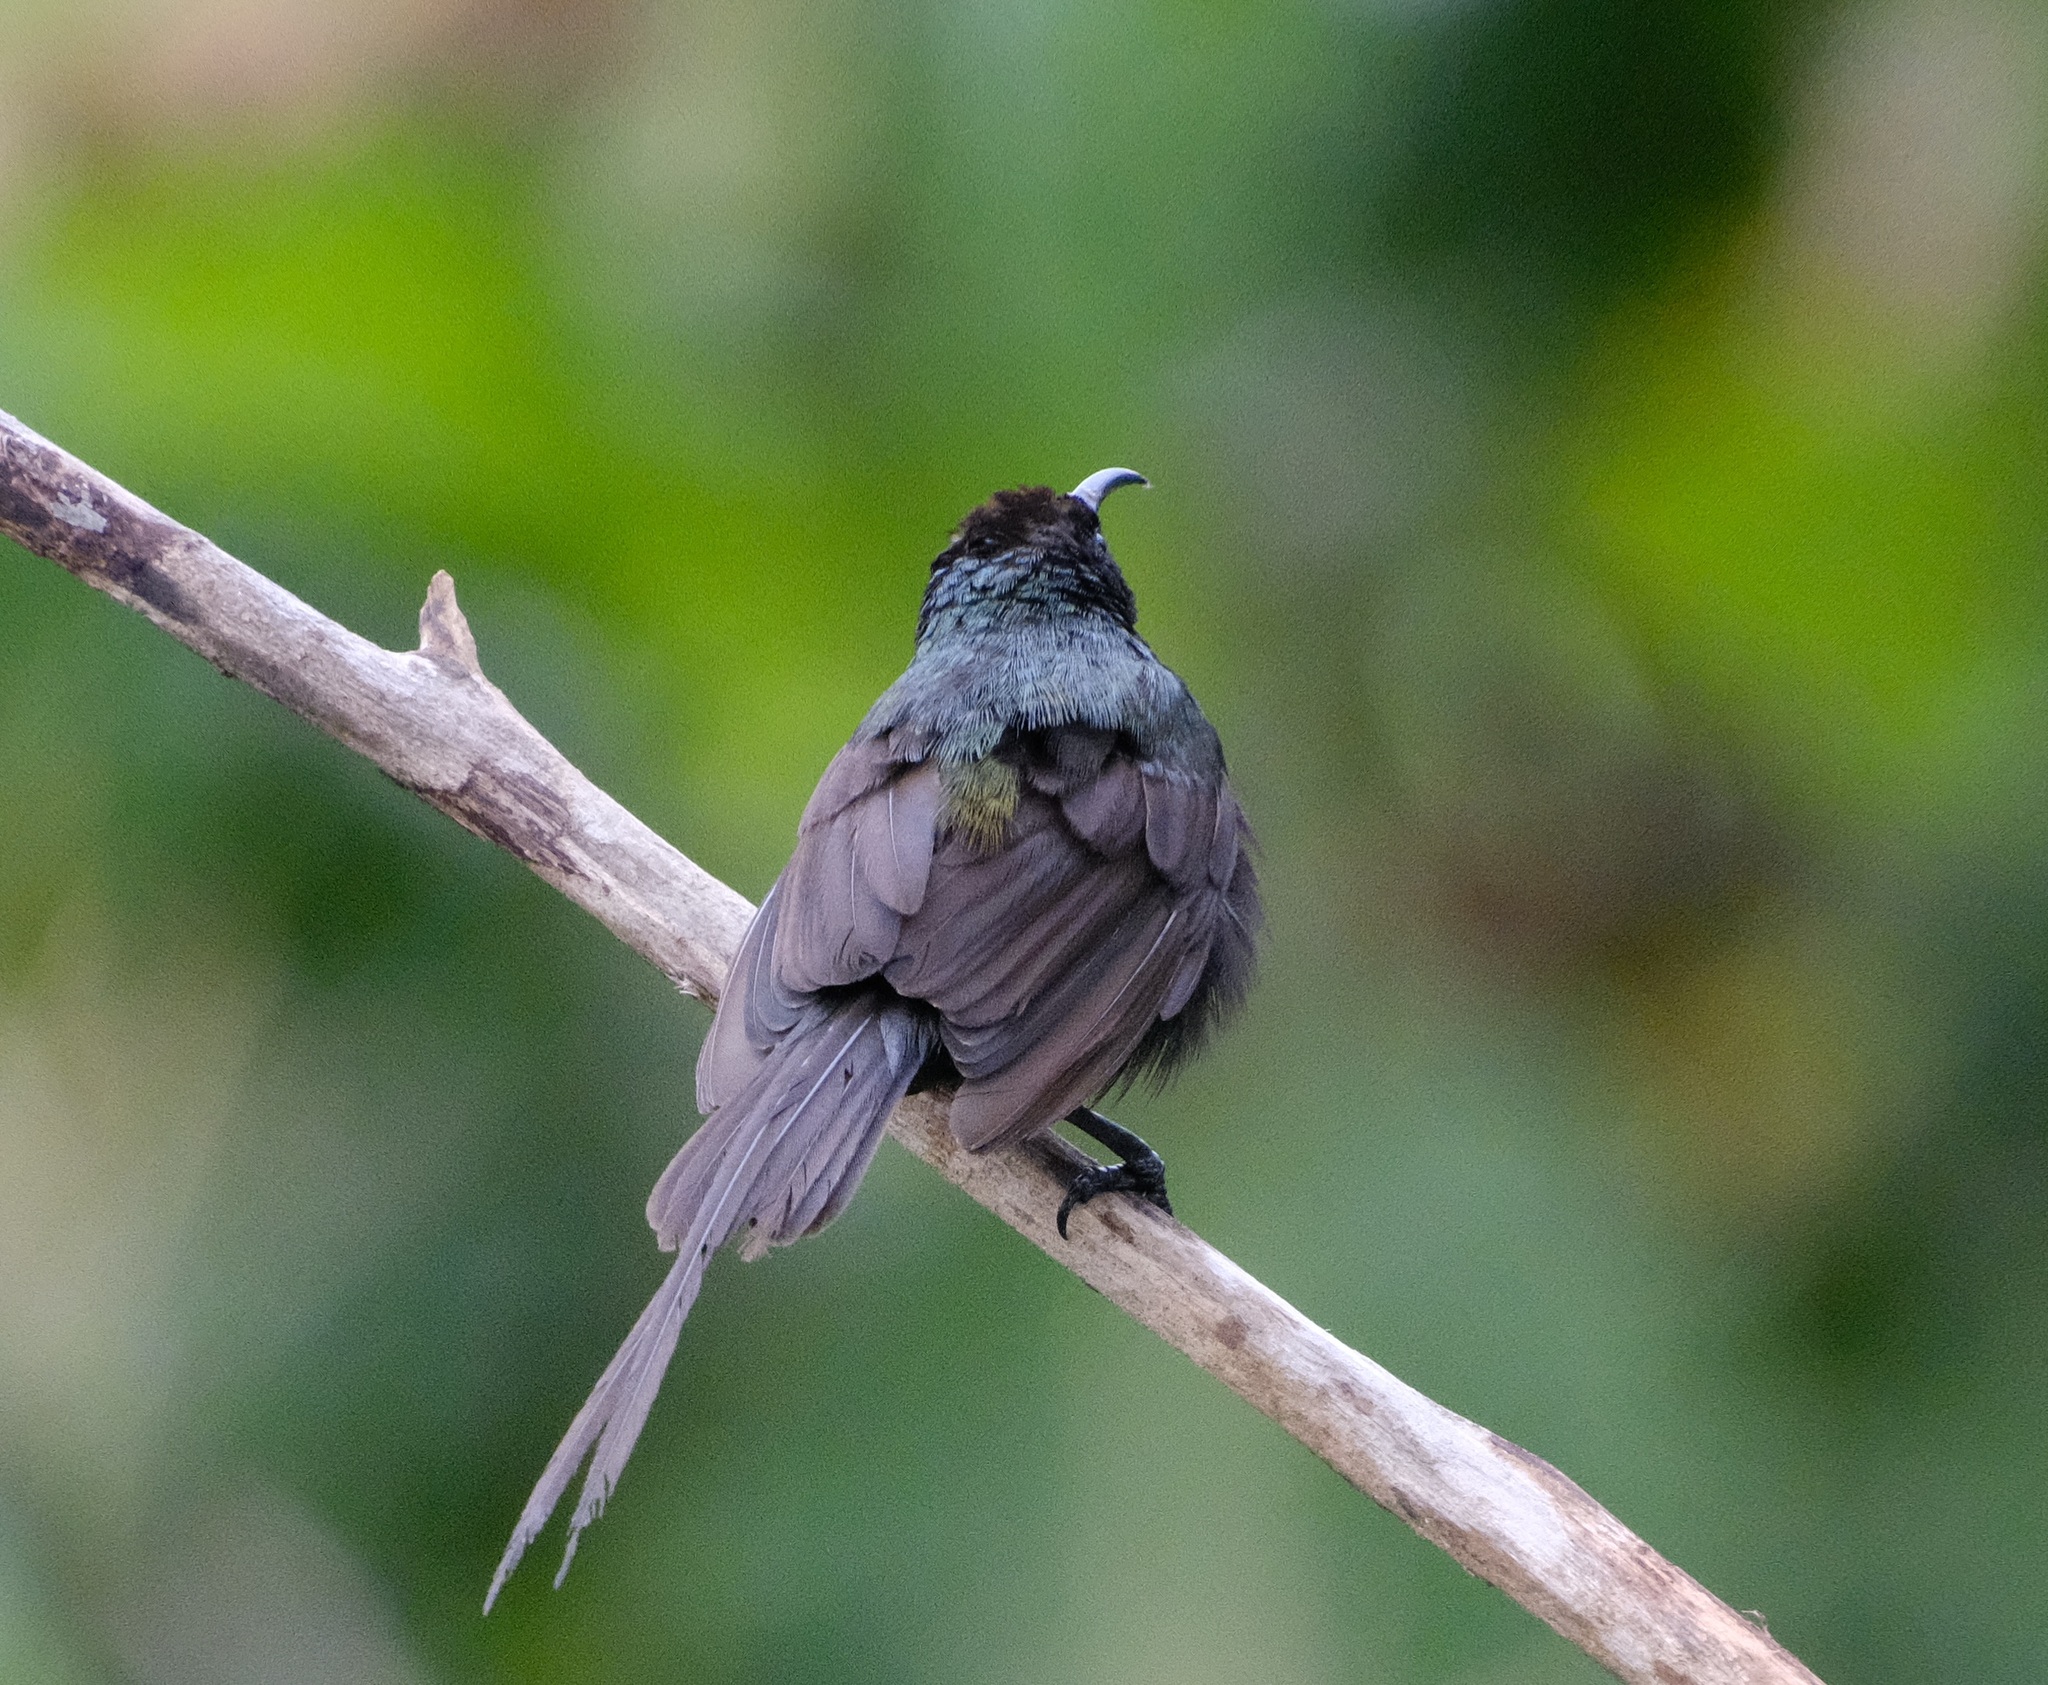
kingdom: Animalia
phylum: Chordata
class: Aves
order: Passeriformes
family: Nectariniidae
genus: Nectarinia
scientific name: Nectarinia kilimensis
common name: Bronzy sunbird
